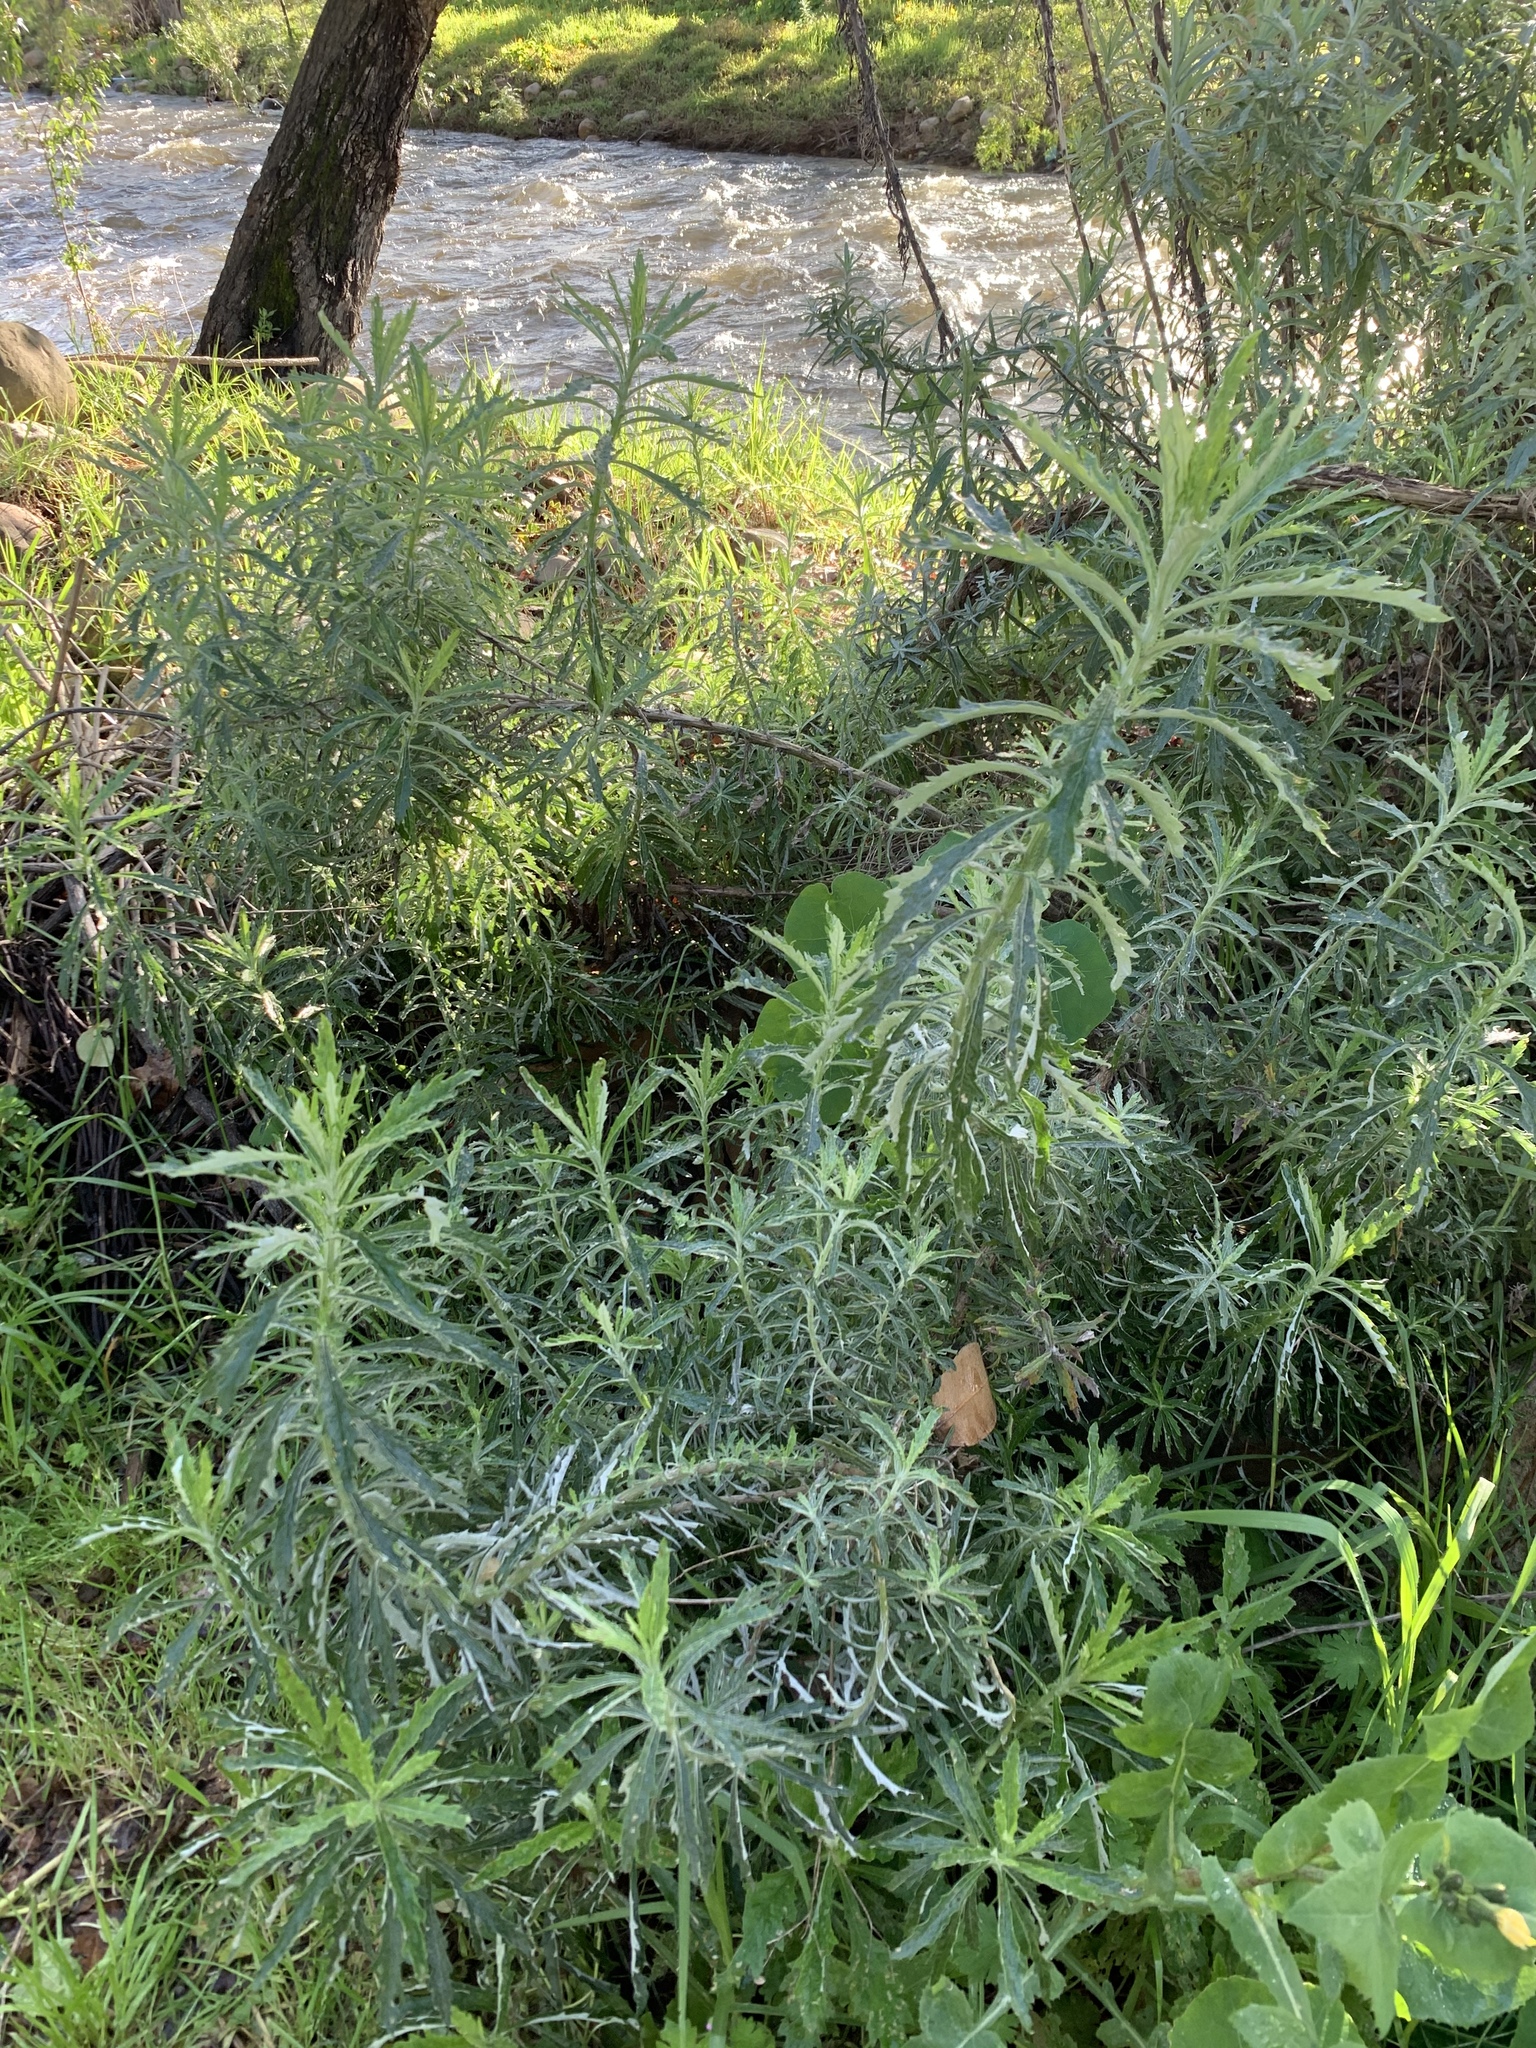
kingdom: Plantae
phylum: Tracheophyta
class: Magnoliopsida
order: Asterales
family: Asteraceae
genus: Senecio
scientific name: Senecio pterophorus
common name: Shoddy ragwort
